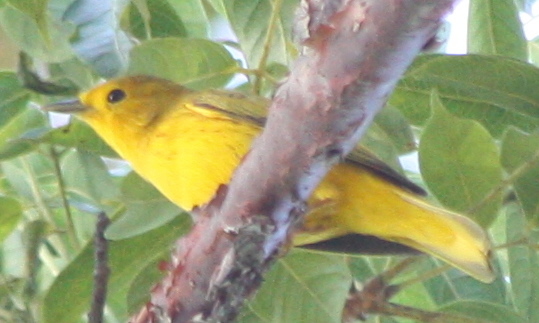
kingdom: Animalia
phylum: Chordata
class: Aves
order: Passeriformes
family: Parulidae
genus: Setophaga
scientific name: Setophaga petechia
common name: Yellow warbler
